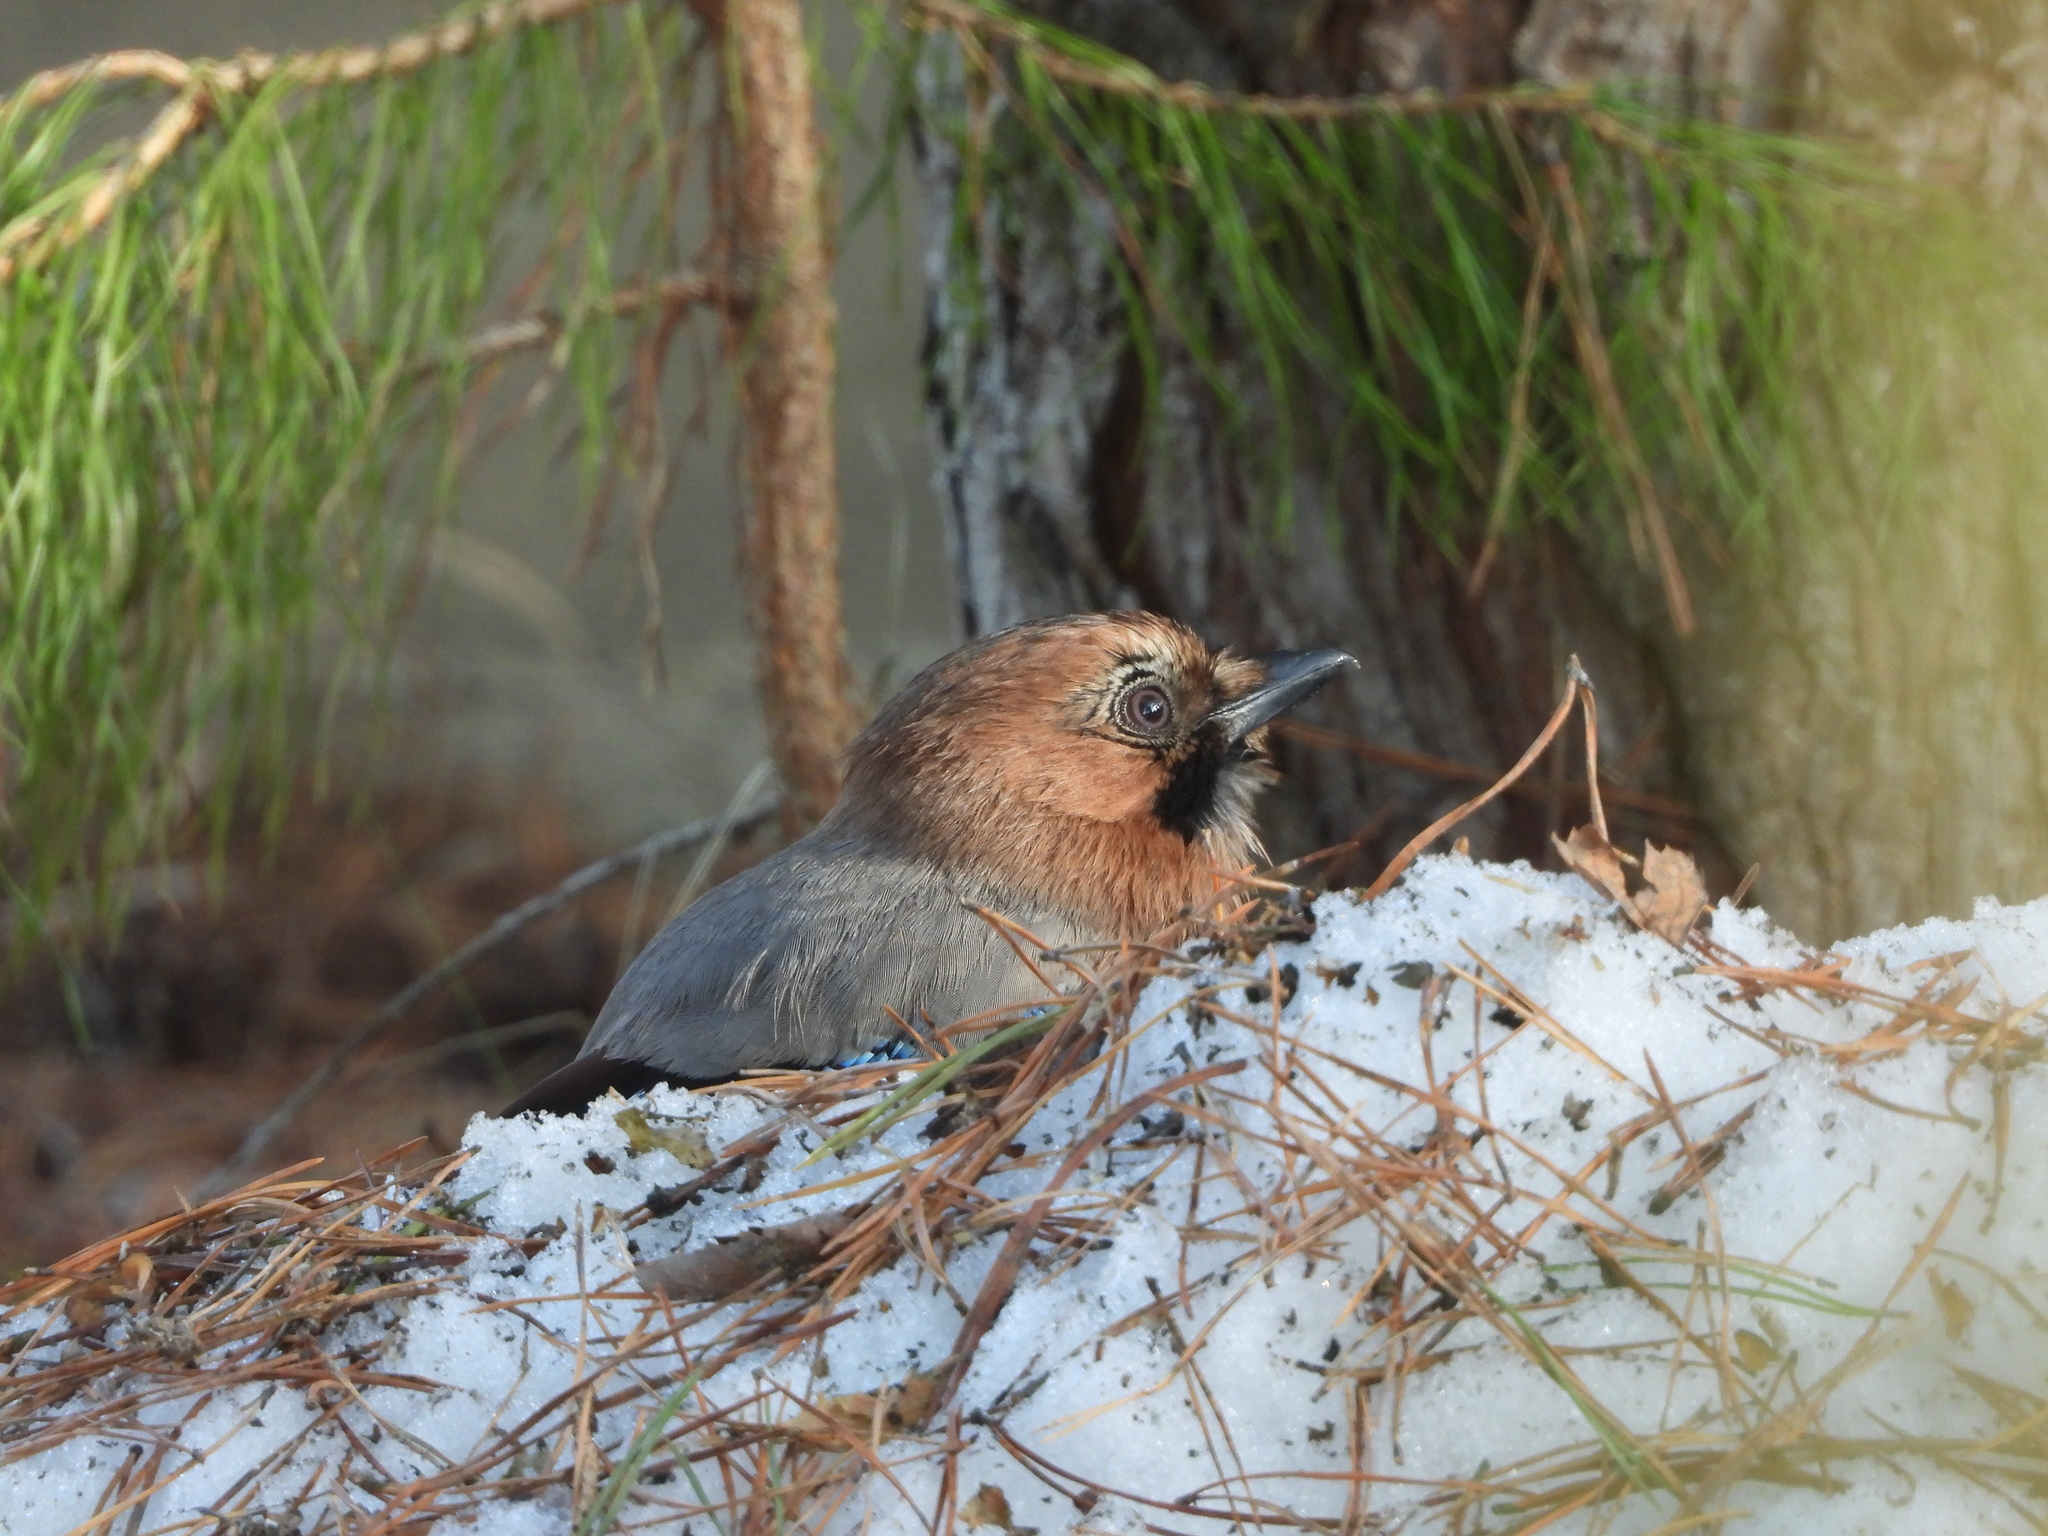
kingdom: Animalia
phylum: Chordata
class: Aves
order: Passeriformes
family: Corvidae
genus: Garrulus
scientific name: Garrulus glandarius
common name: Eurasian jay
